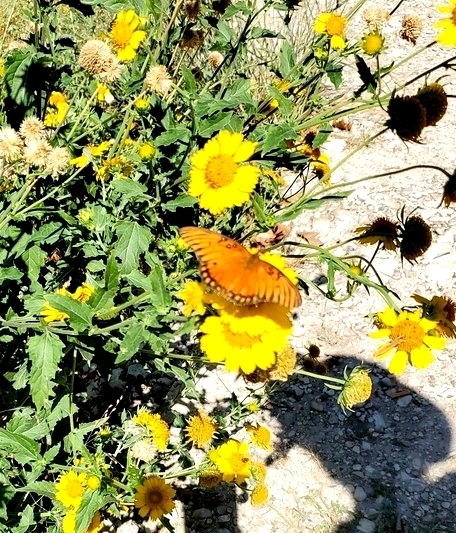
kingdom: Animalia
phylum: Arthropoda
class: Insecta
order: Lepidoptera
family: Nymphalidae
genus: Dione
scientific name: Dione vanillae
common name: Gulf fritillary
